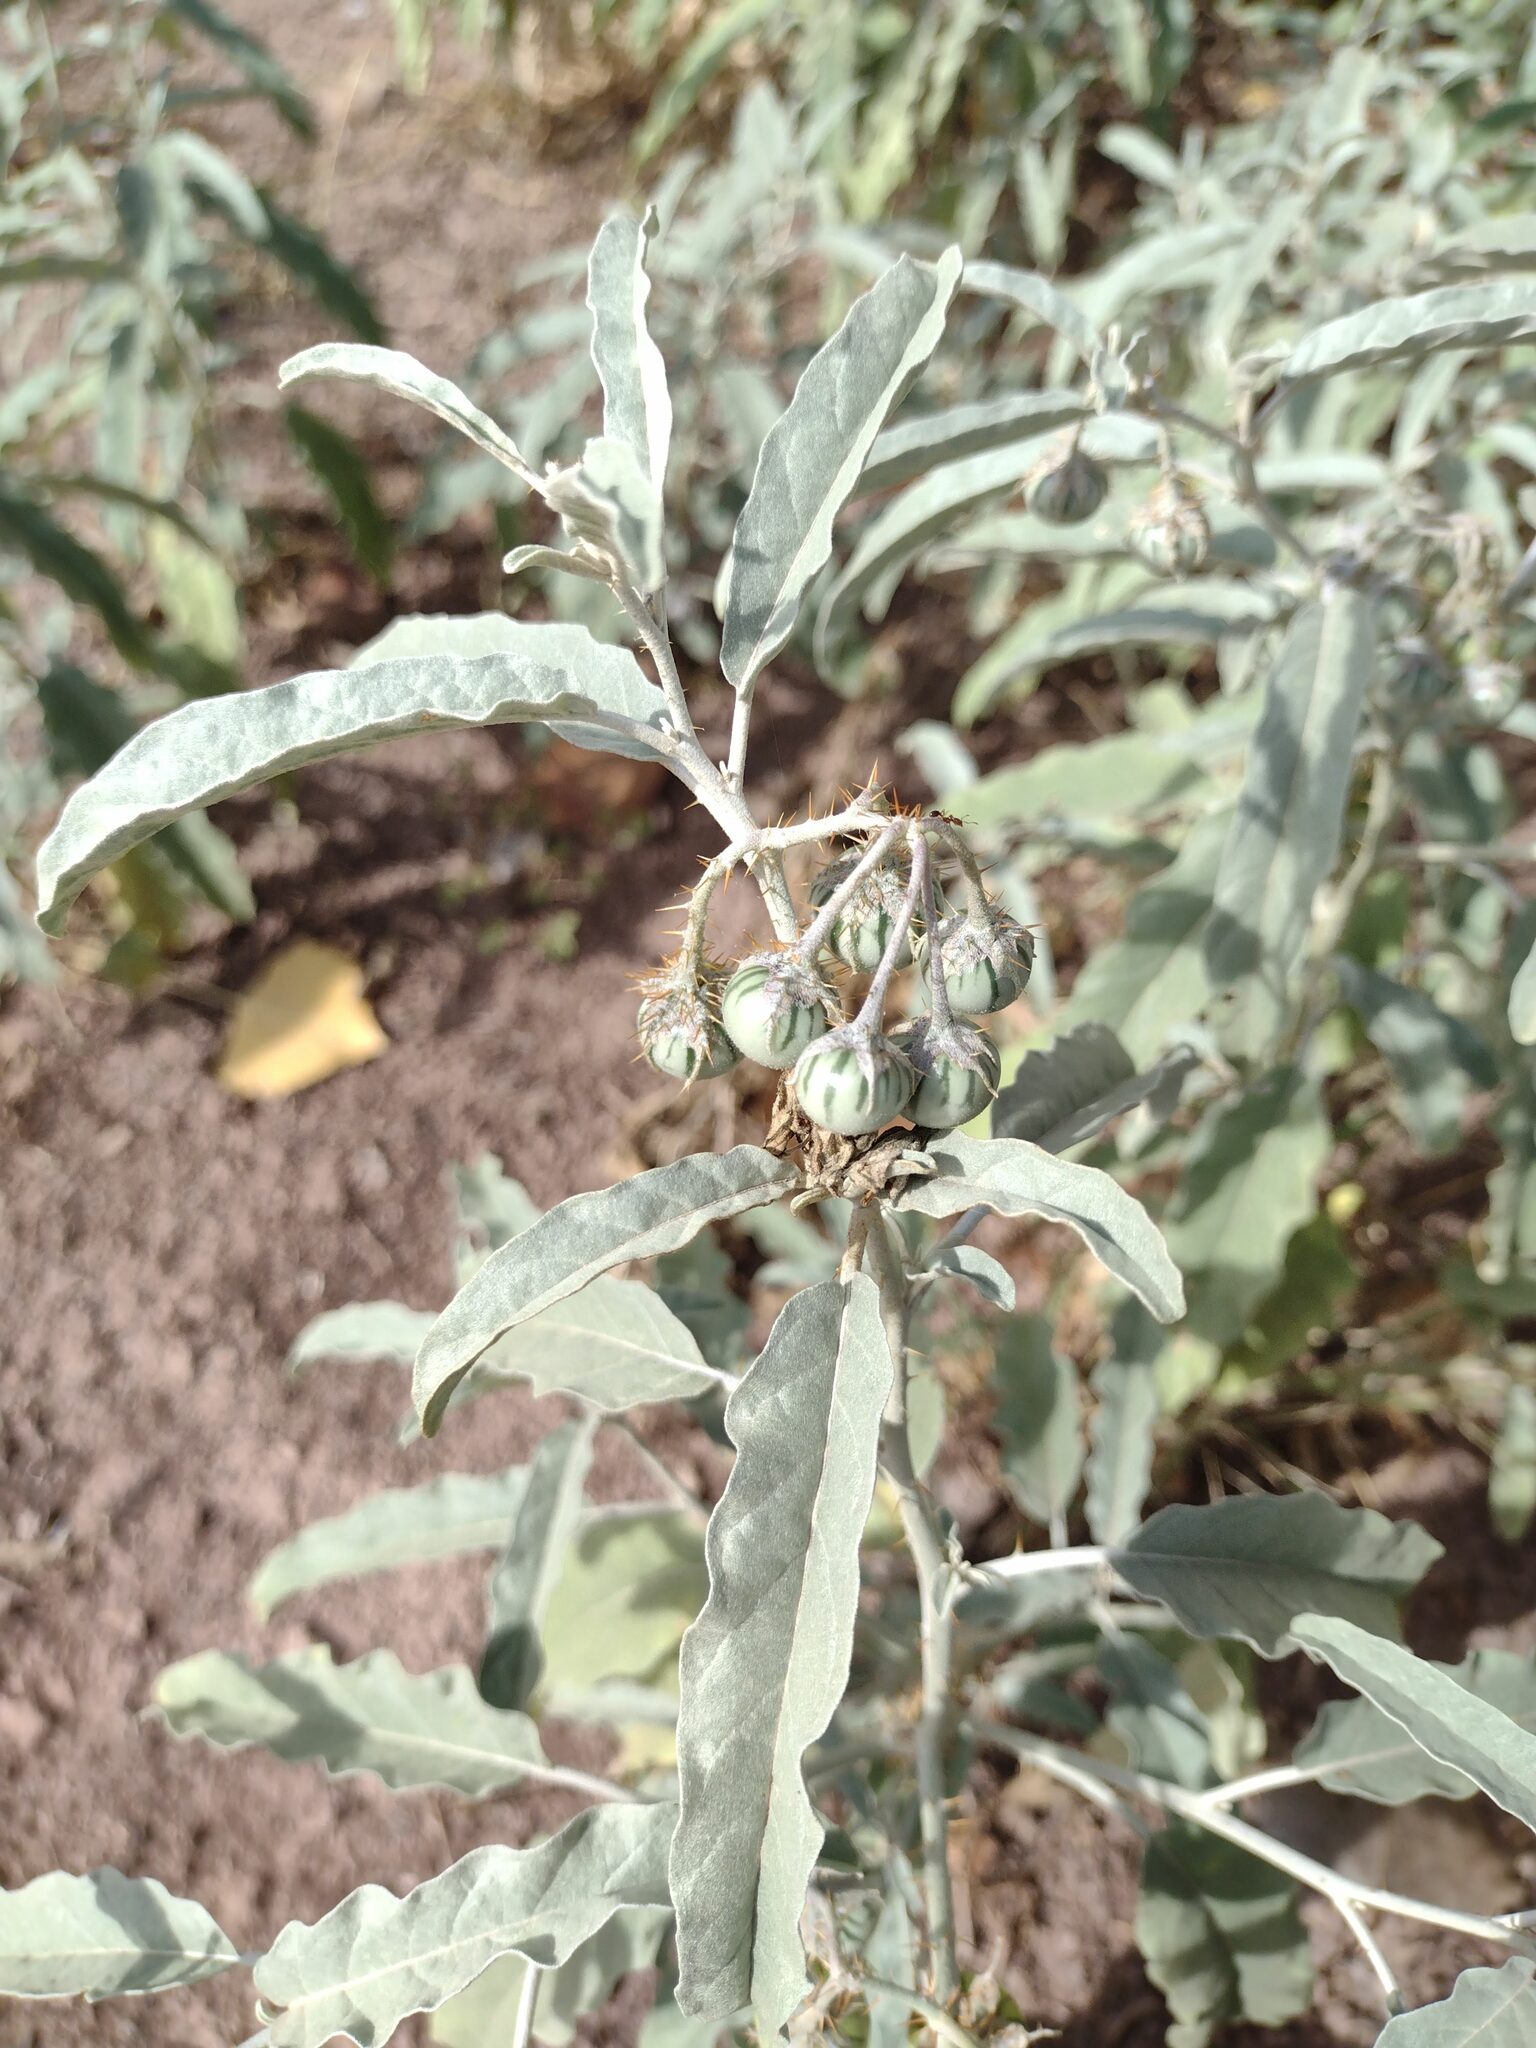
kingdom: Plantae
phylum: Tracheophyta
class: Magnoliopsida
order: Solanales
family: Solanaceae
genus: Solanum
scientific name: Solanum elaeagnifolium
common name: Silverleaf nightshade
